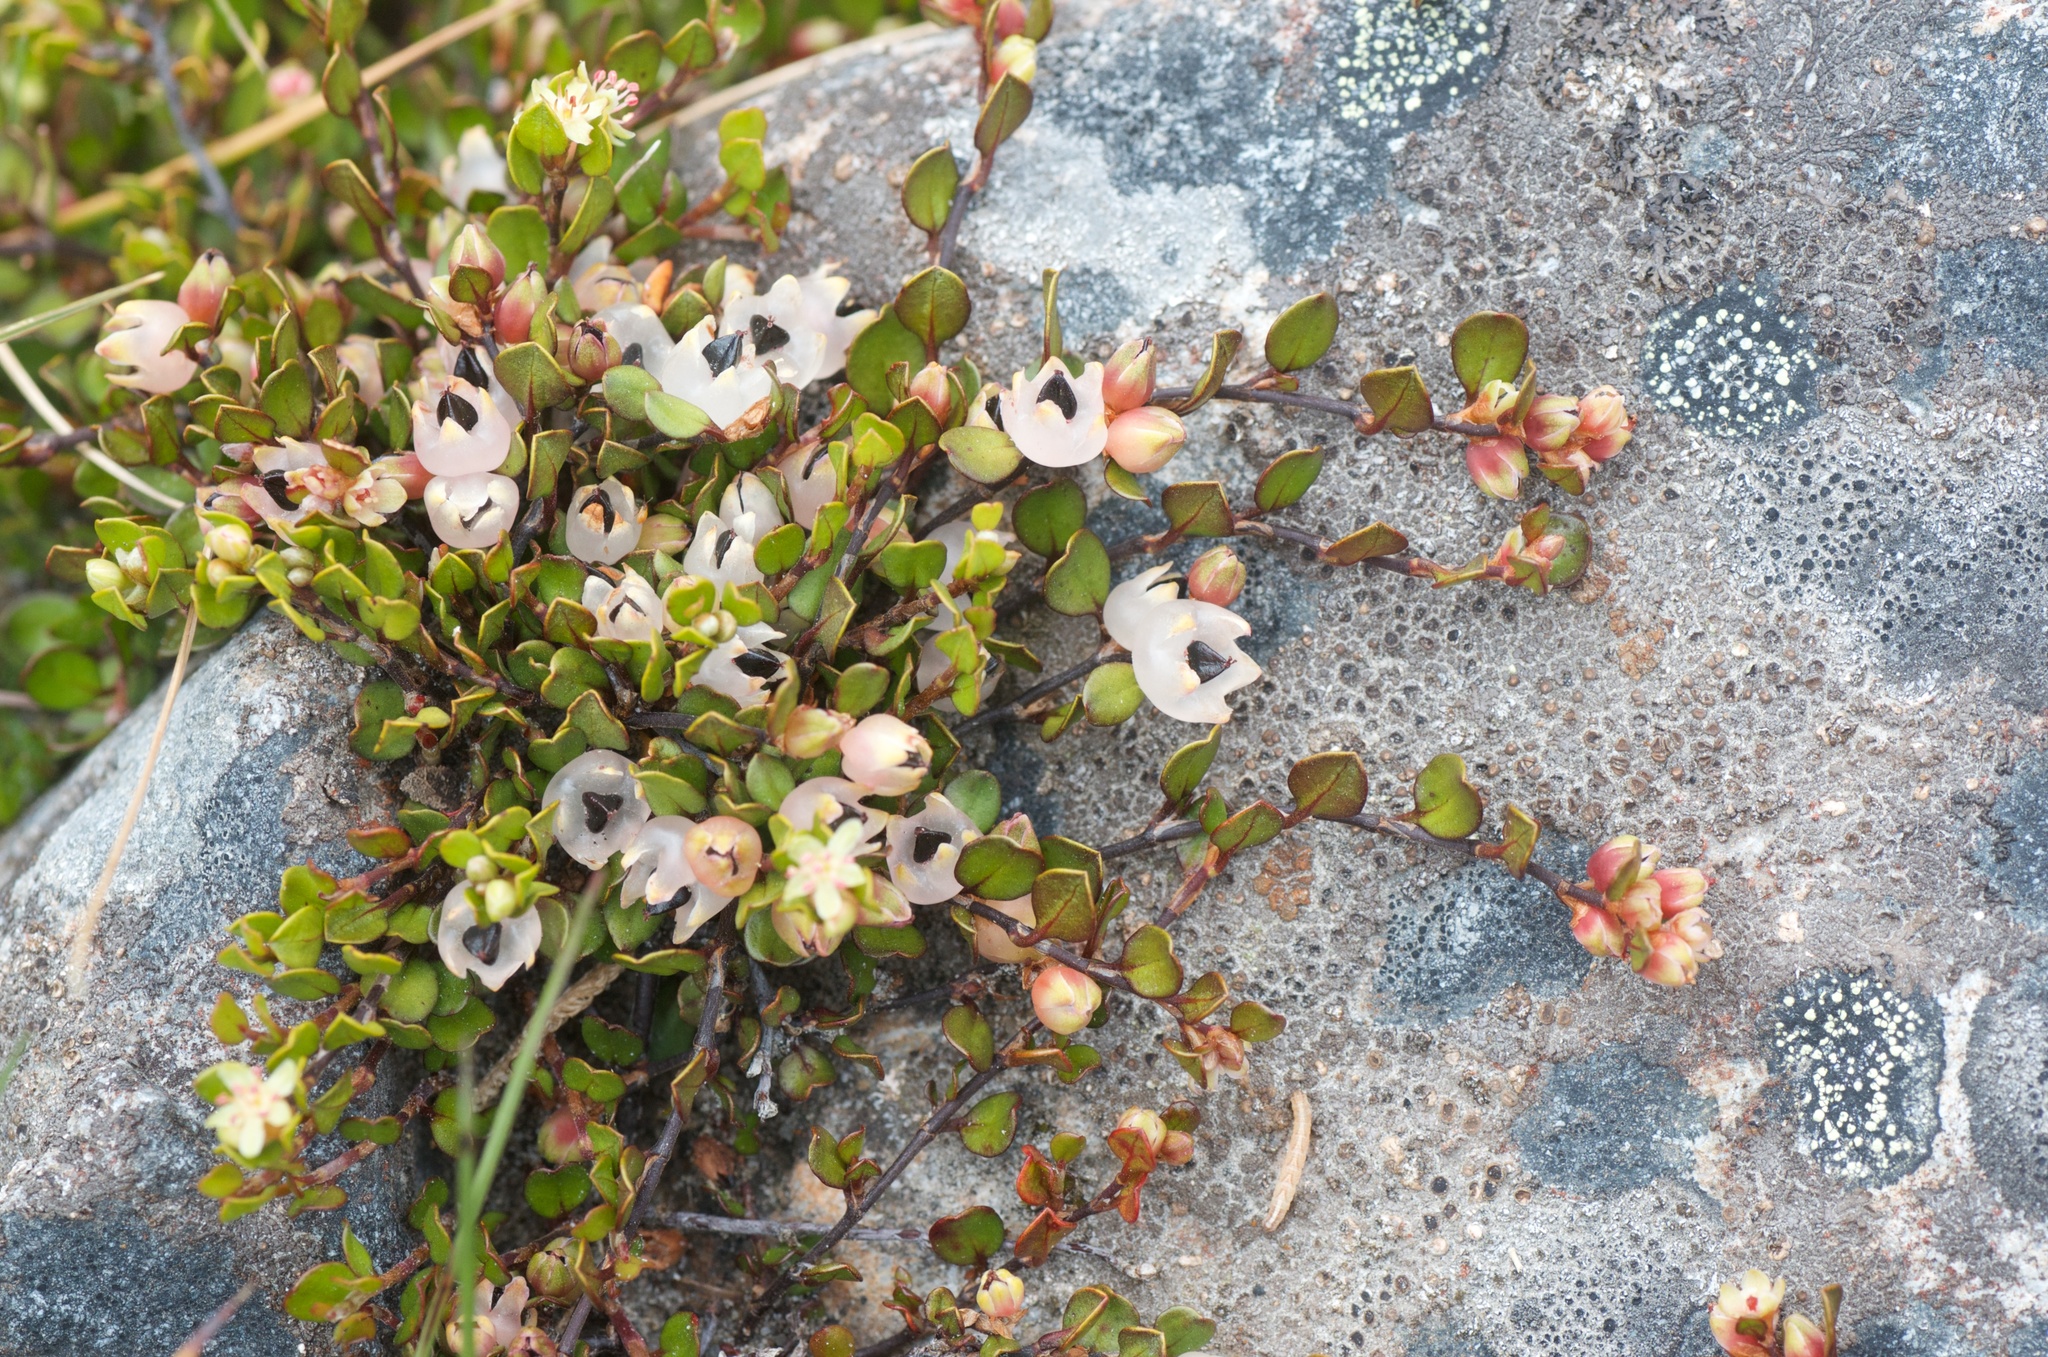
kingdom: Plantae
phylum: Tracheophyta
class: Magnoliopsida
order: Caryophyllales
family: Polygonaceae
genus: Muehlenbeckia
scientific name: Muehlenbeckia axillaris
